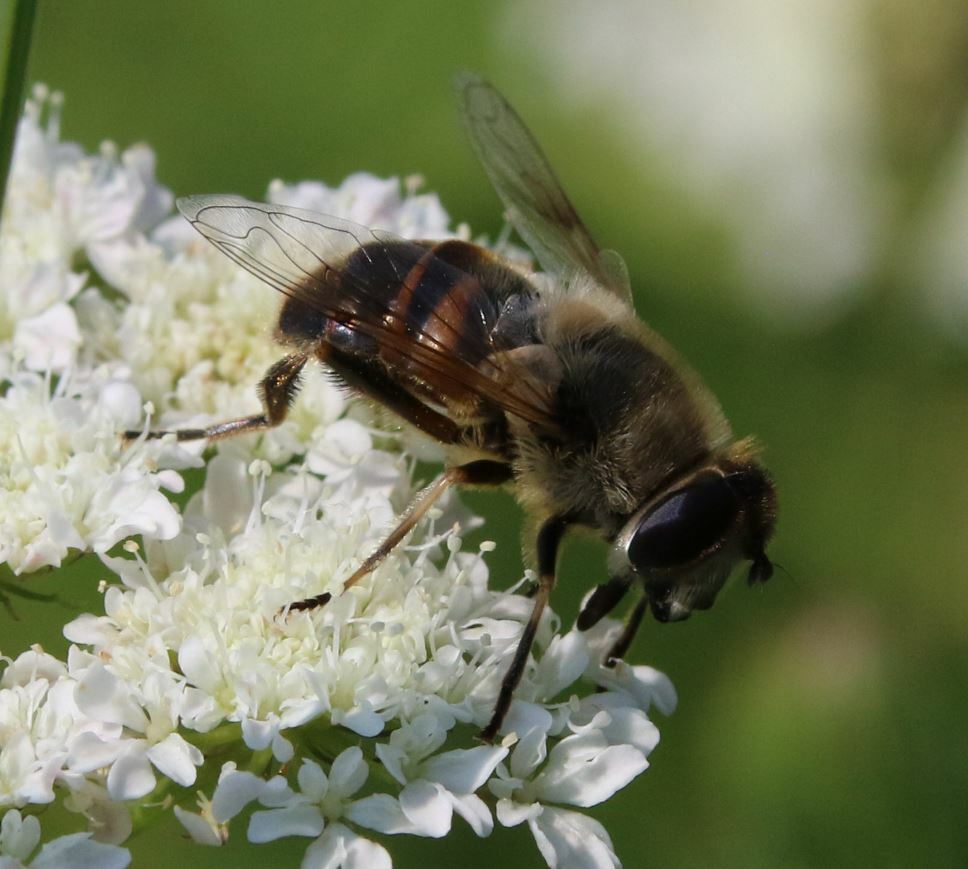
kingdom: Animalia
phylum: Arthropoda
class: Insecta
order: Diptera
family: Syrphidae
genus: Eristalis
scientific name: Eristalis tenax
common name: Drone fly
